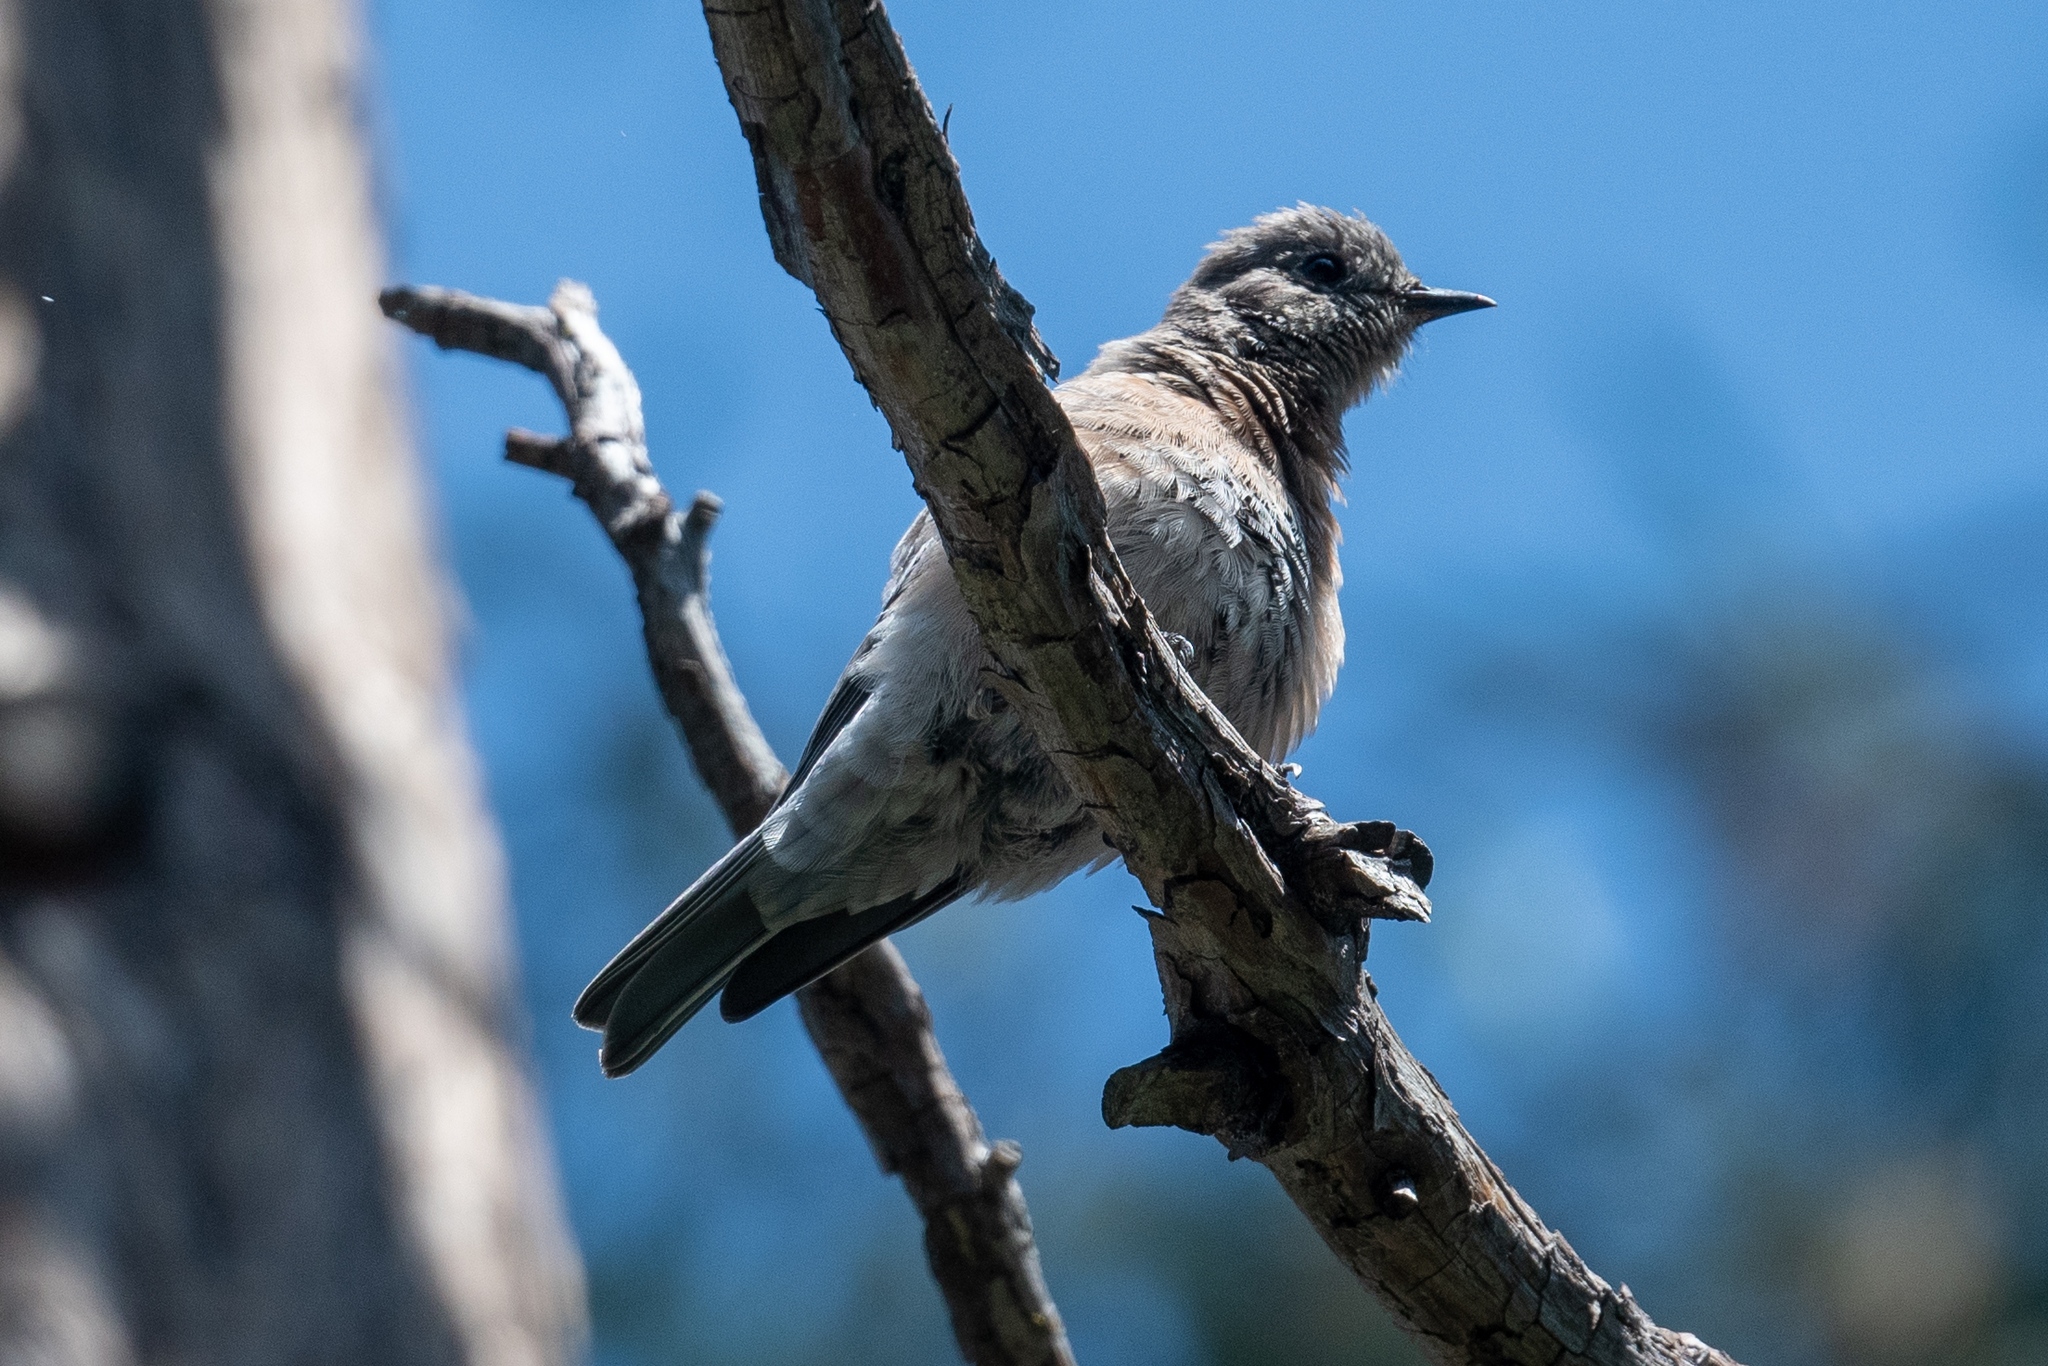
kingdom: Animalia
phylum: Chordata
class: Aves
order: Passeriformes
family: Turdidae
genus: Sialia
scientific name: Sialia mexicana
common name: Western bluebird
